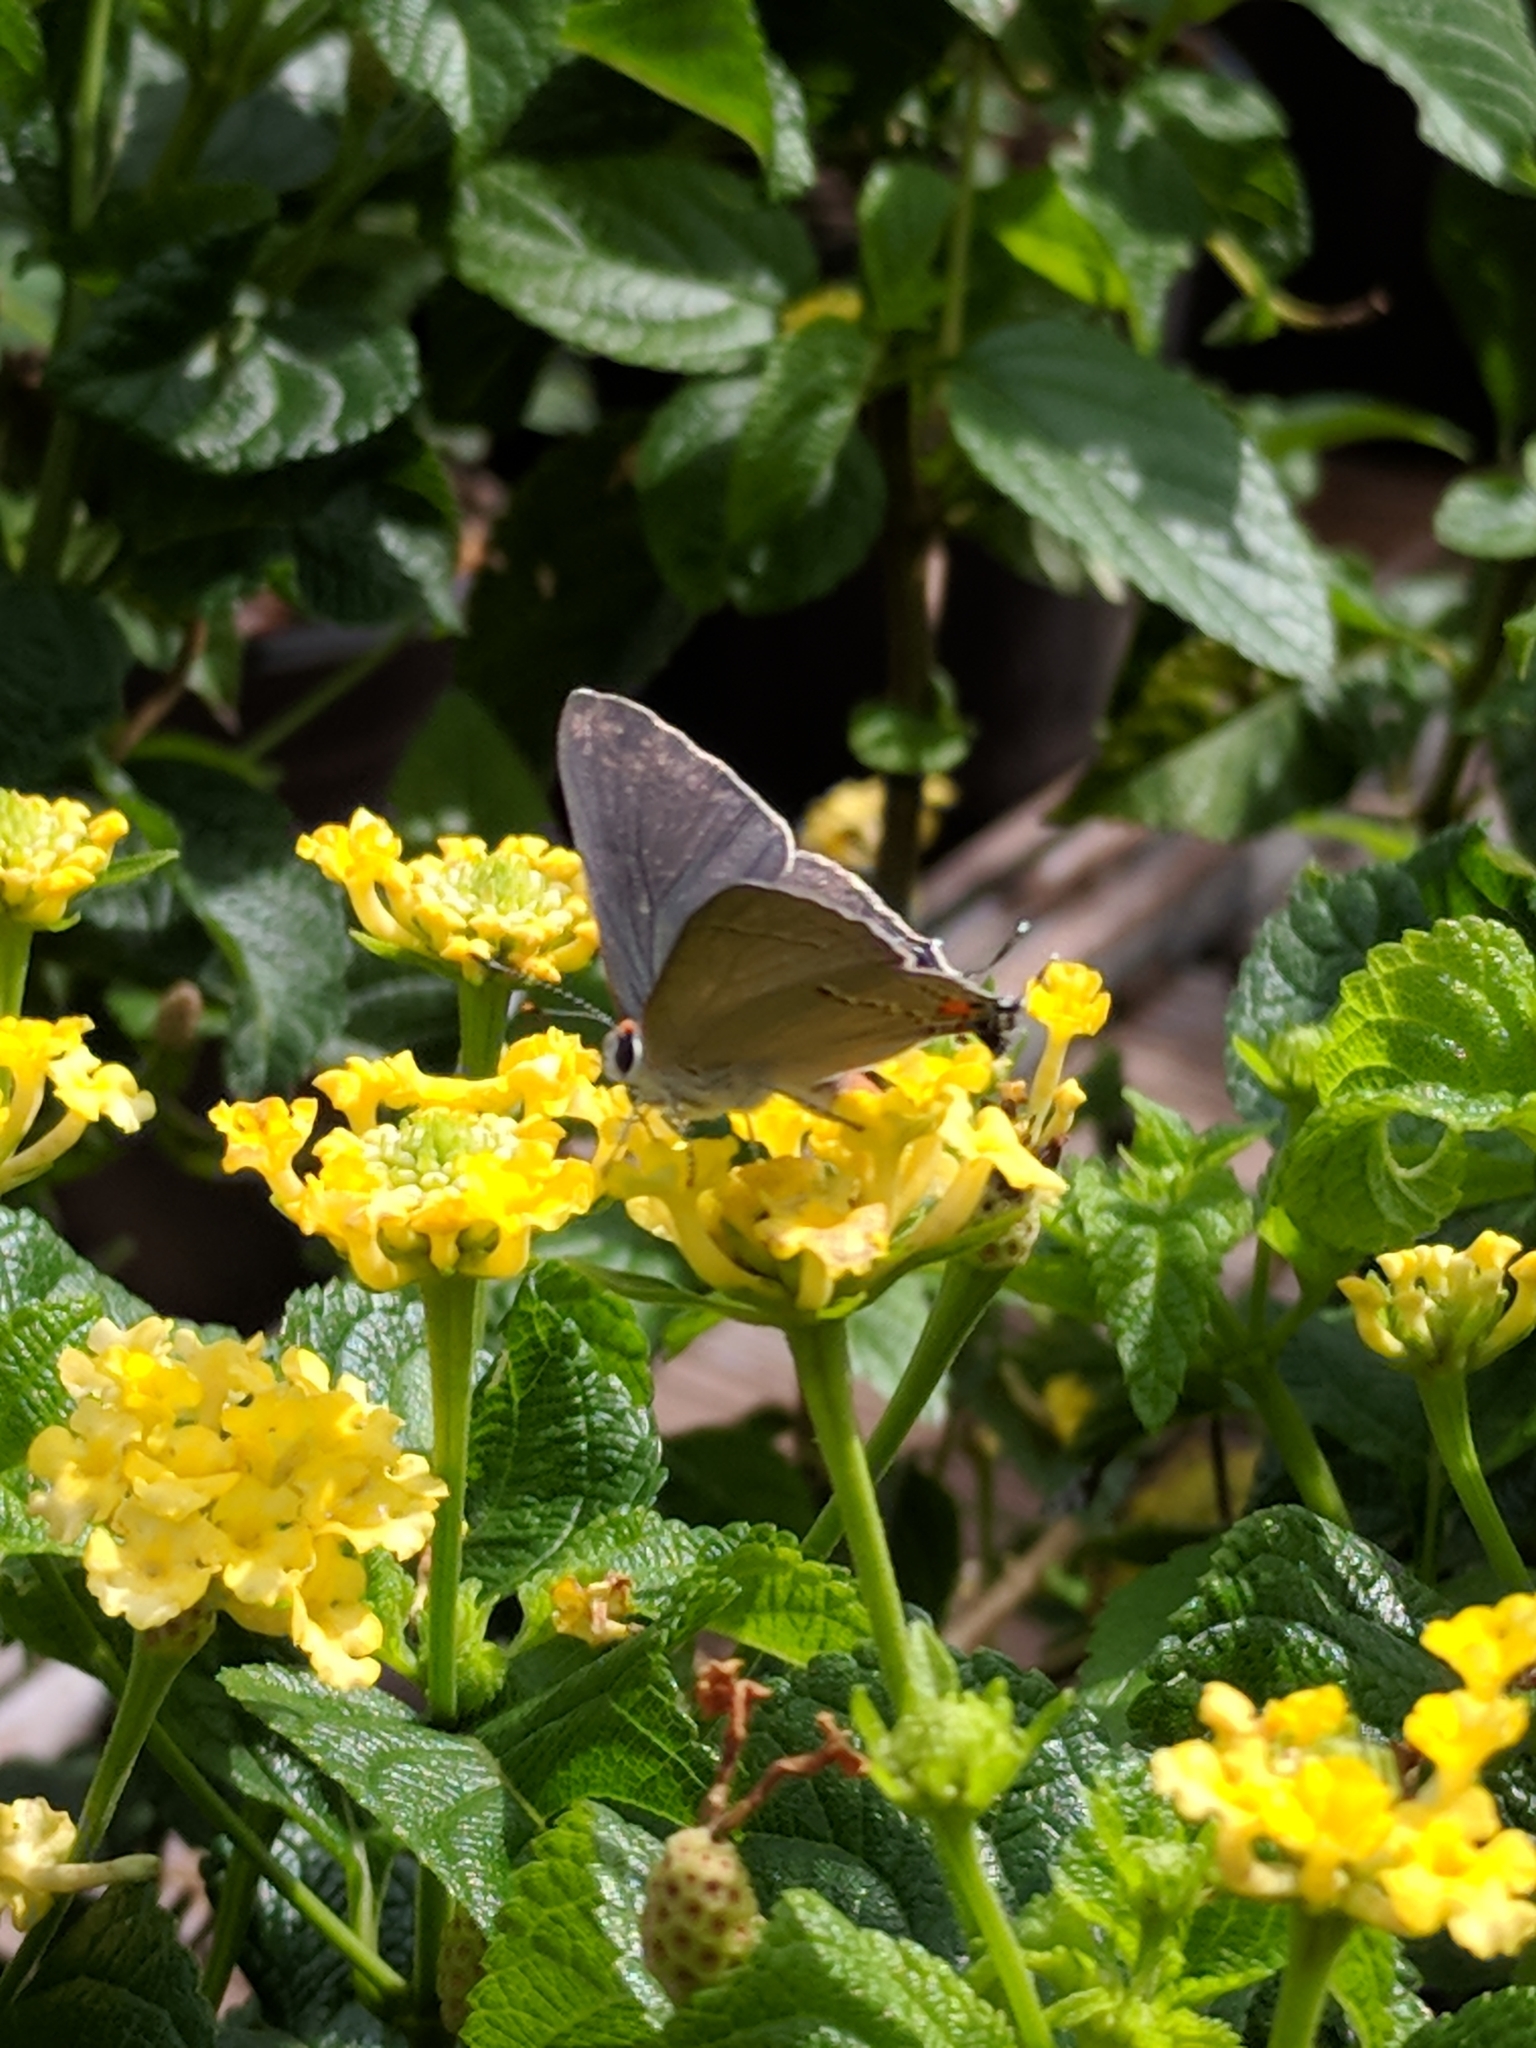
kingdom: Animalia
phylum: Arthropoda
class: Insecta
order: Lepidoptera
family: Lycaenidae
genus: Strymon
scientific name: Strymon melinus
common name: Gray hairstreak
